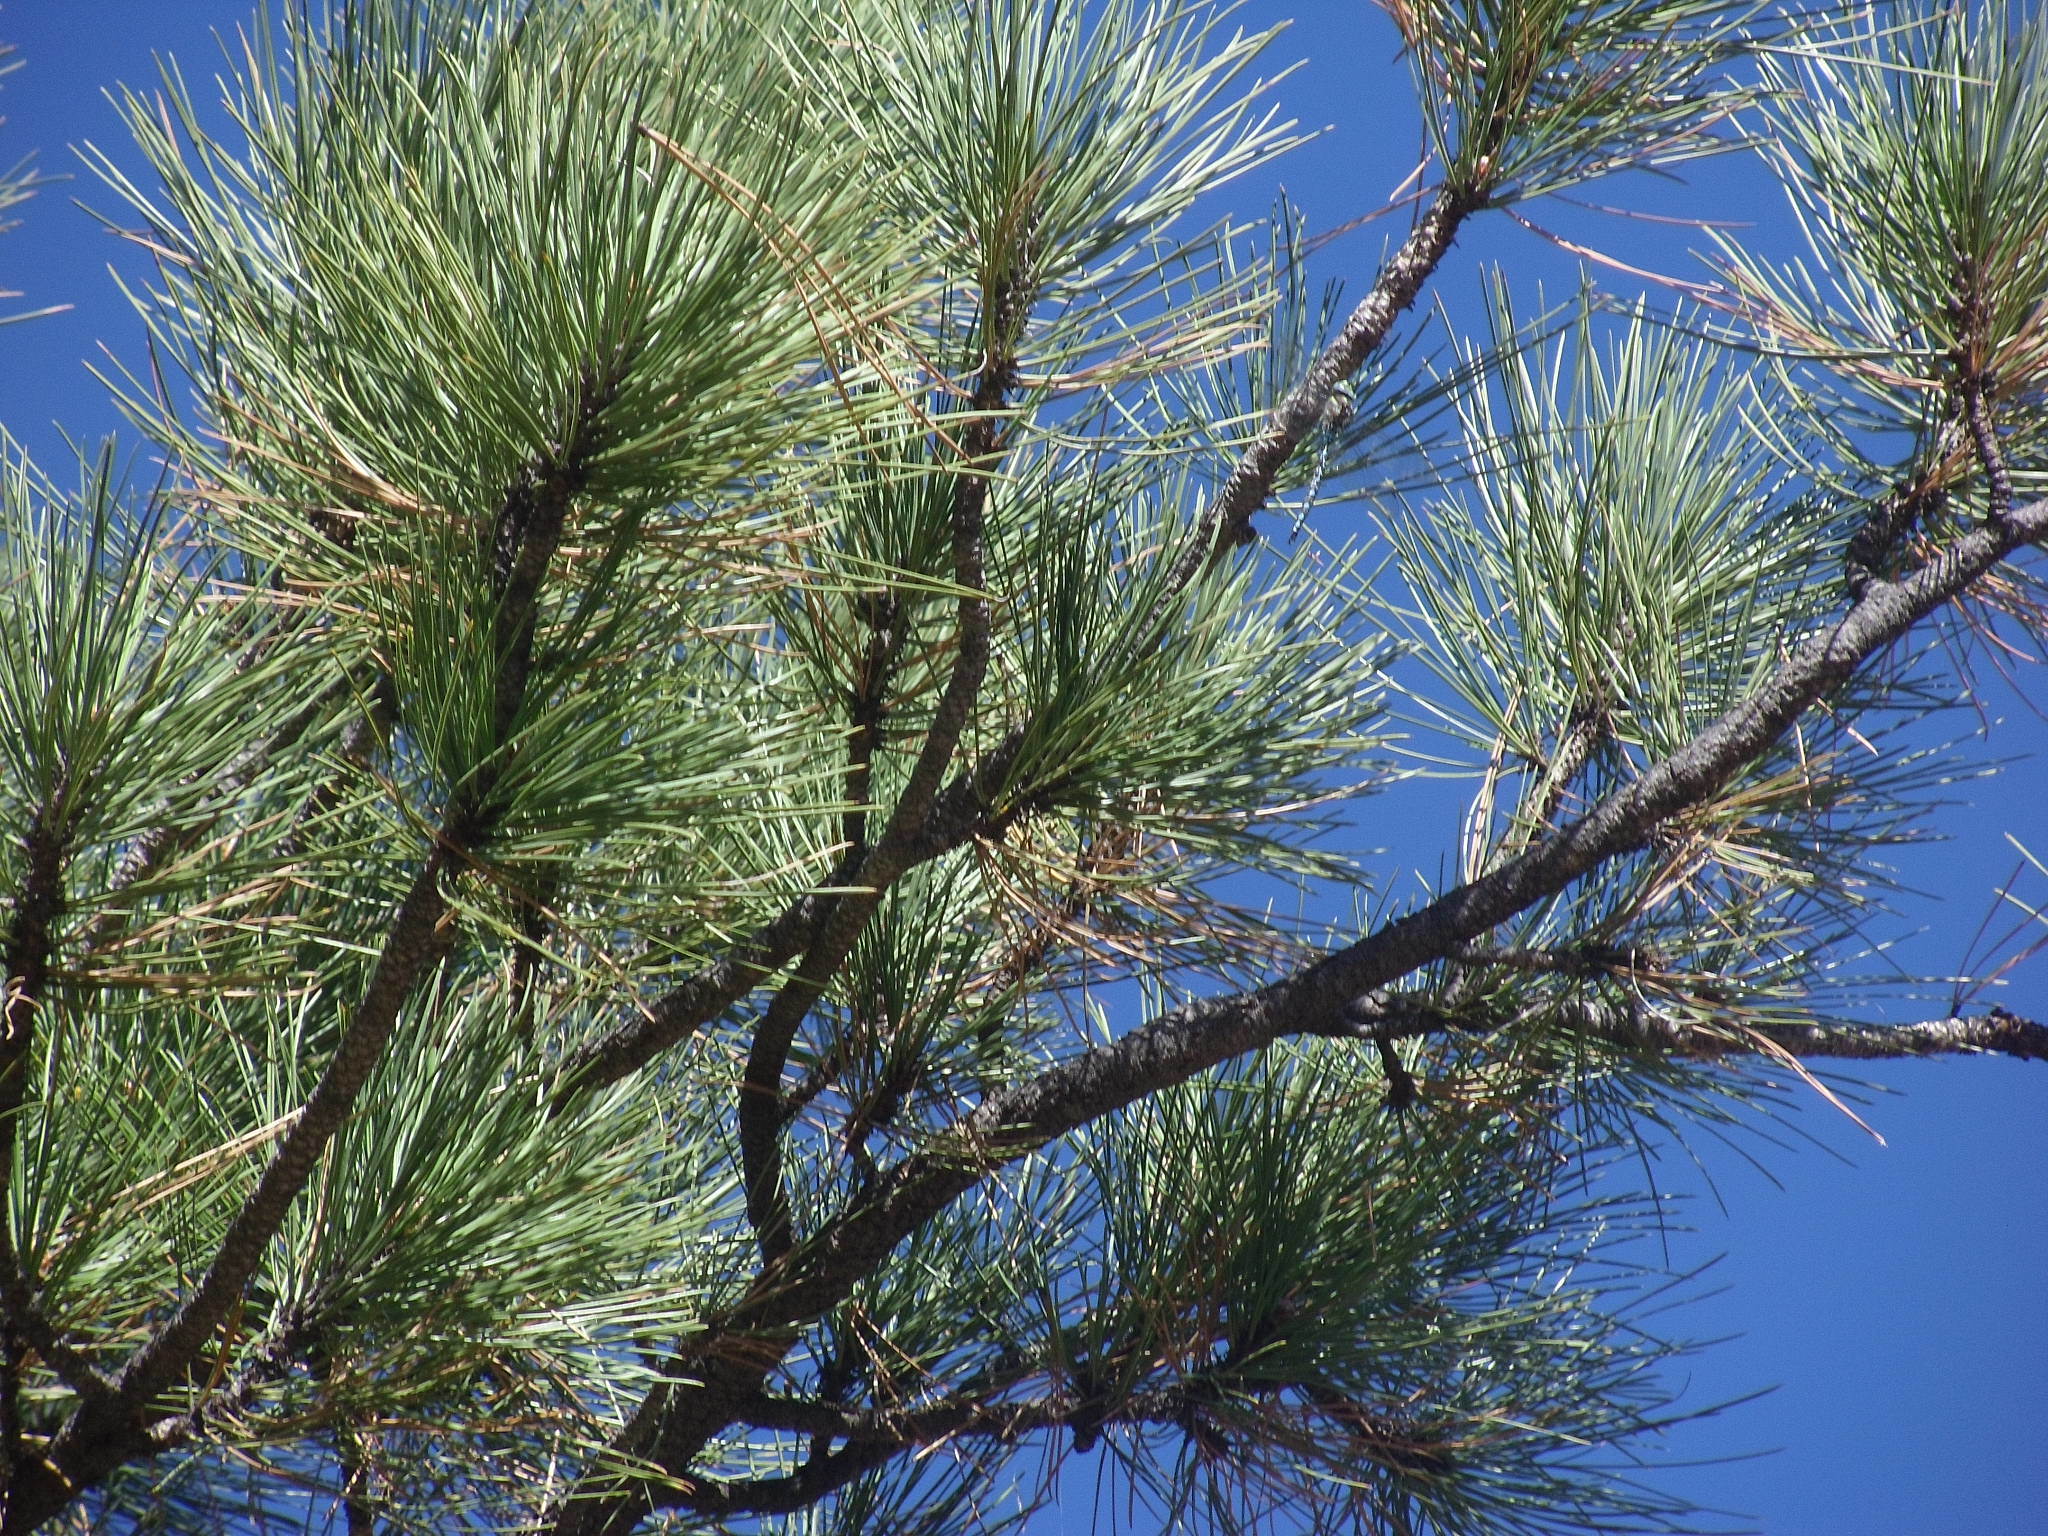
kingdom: Animalia
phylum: Arthropoda
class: Insecta
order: Odonata
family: Aeshnidae
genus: Rhionaeschna
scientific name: Rhionaeschna multicolor
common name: Blue-eyed darner
